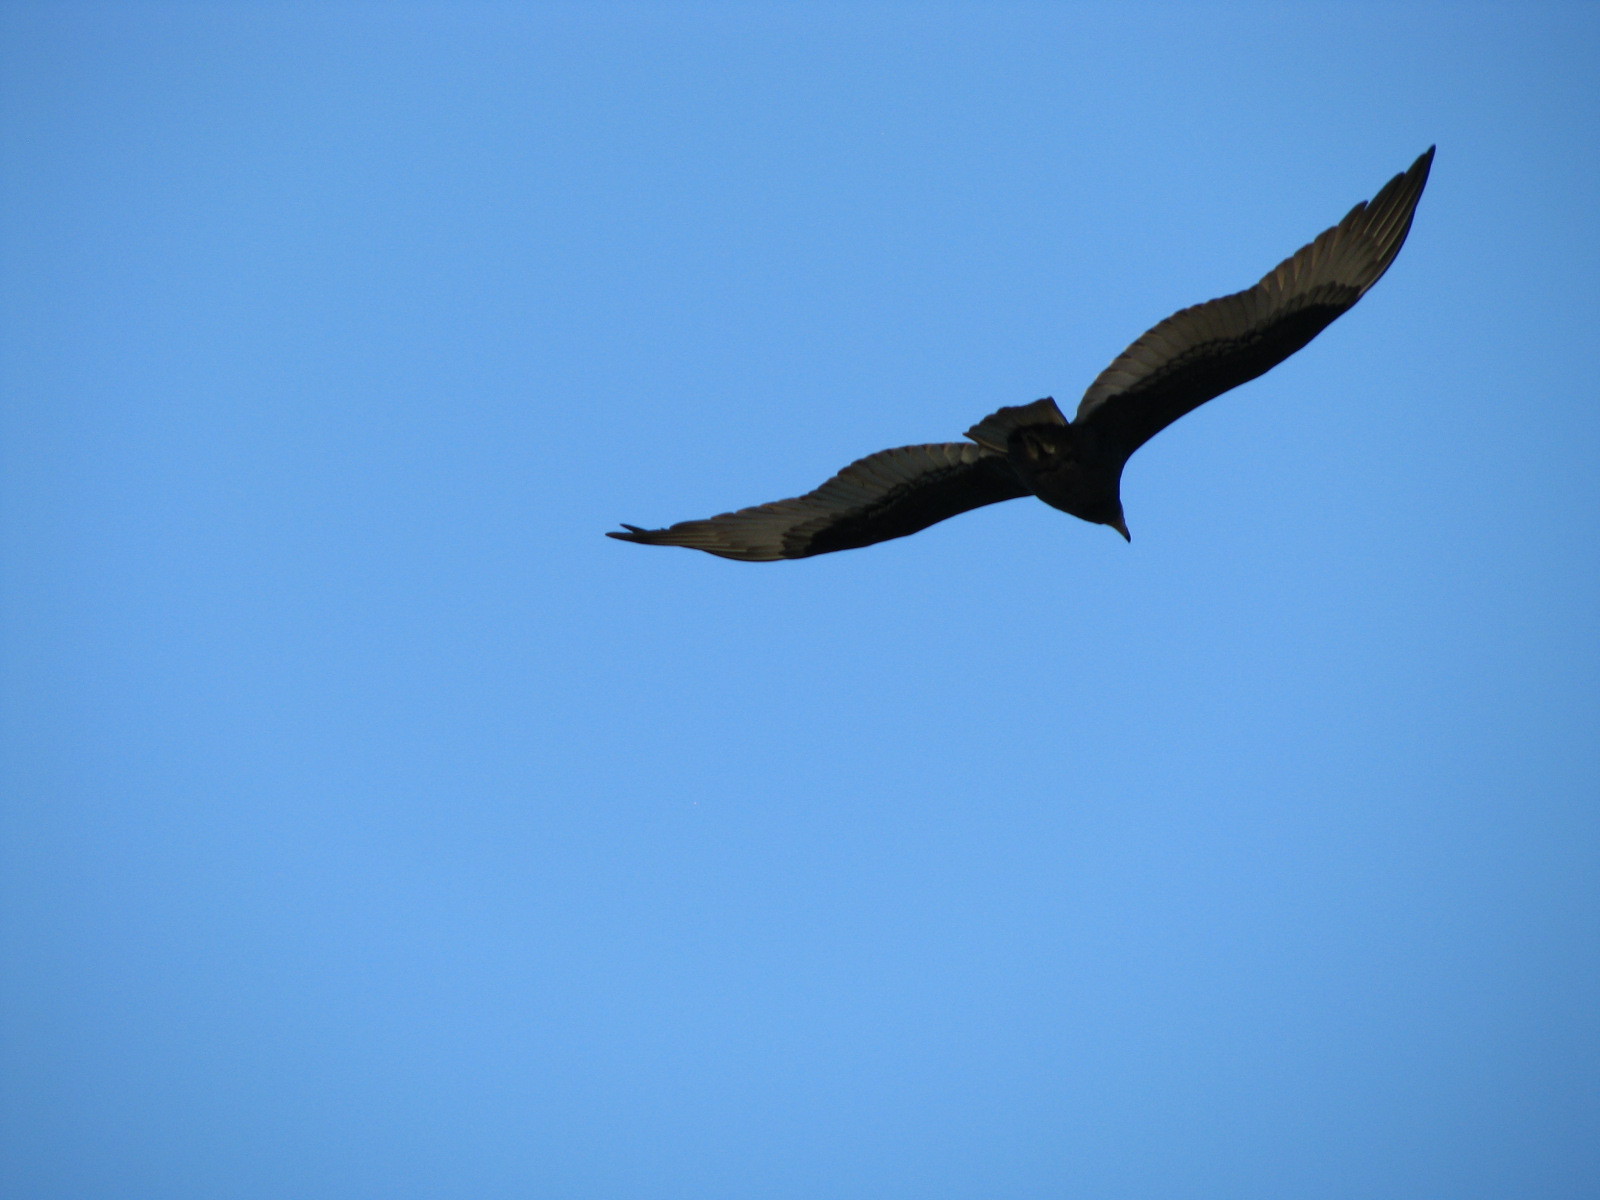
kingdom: Animalia
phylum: Chordata
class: Aves
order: Accipitriformes
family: Cathartidae
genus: Cathartes
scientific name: Cathartes aura
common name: Turkey vulture
